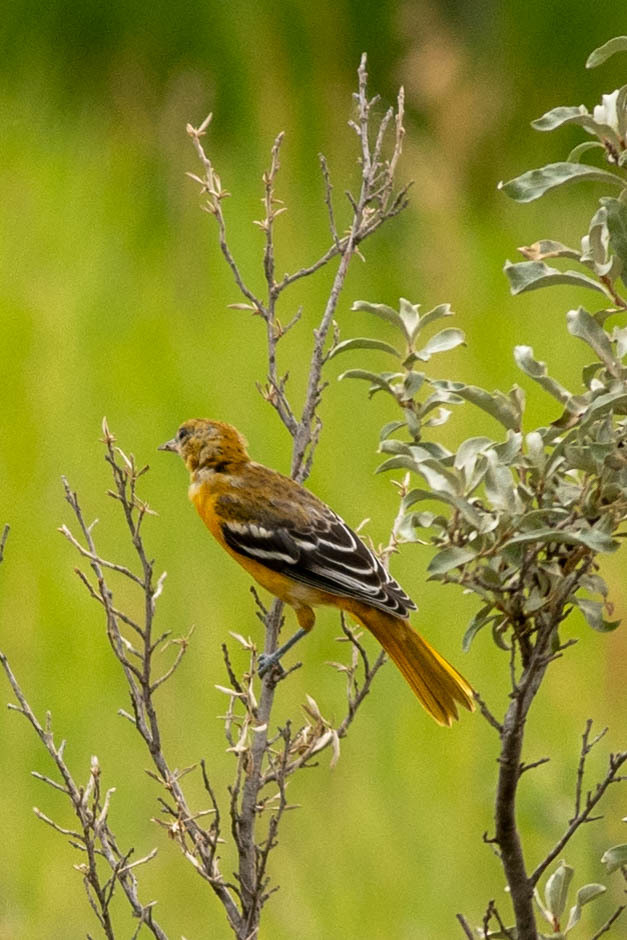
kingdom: Animalia
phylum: Chordata
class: Aves
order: Passeriformes
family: Icteridae
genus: Icterus
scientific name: Icterus galbula
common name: Baltimore oriole
